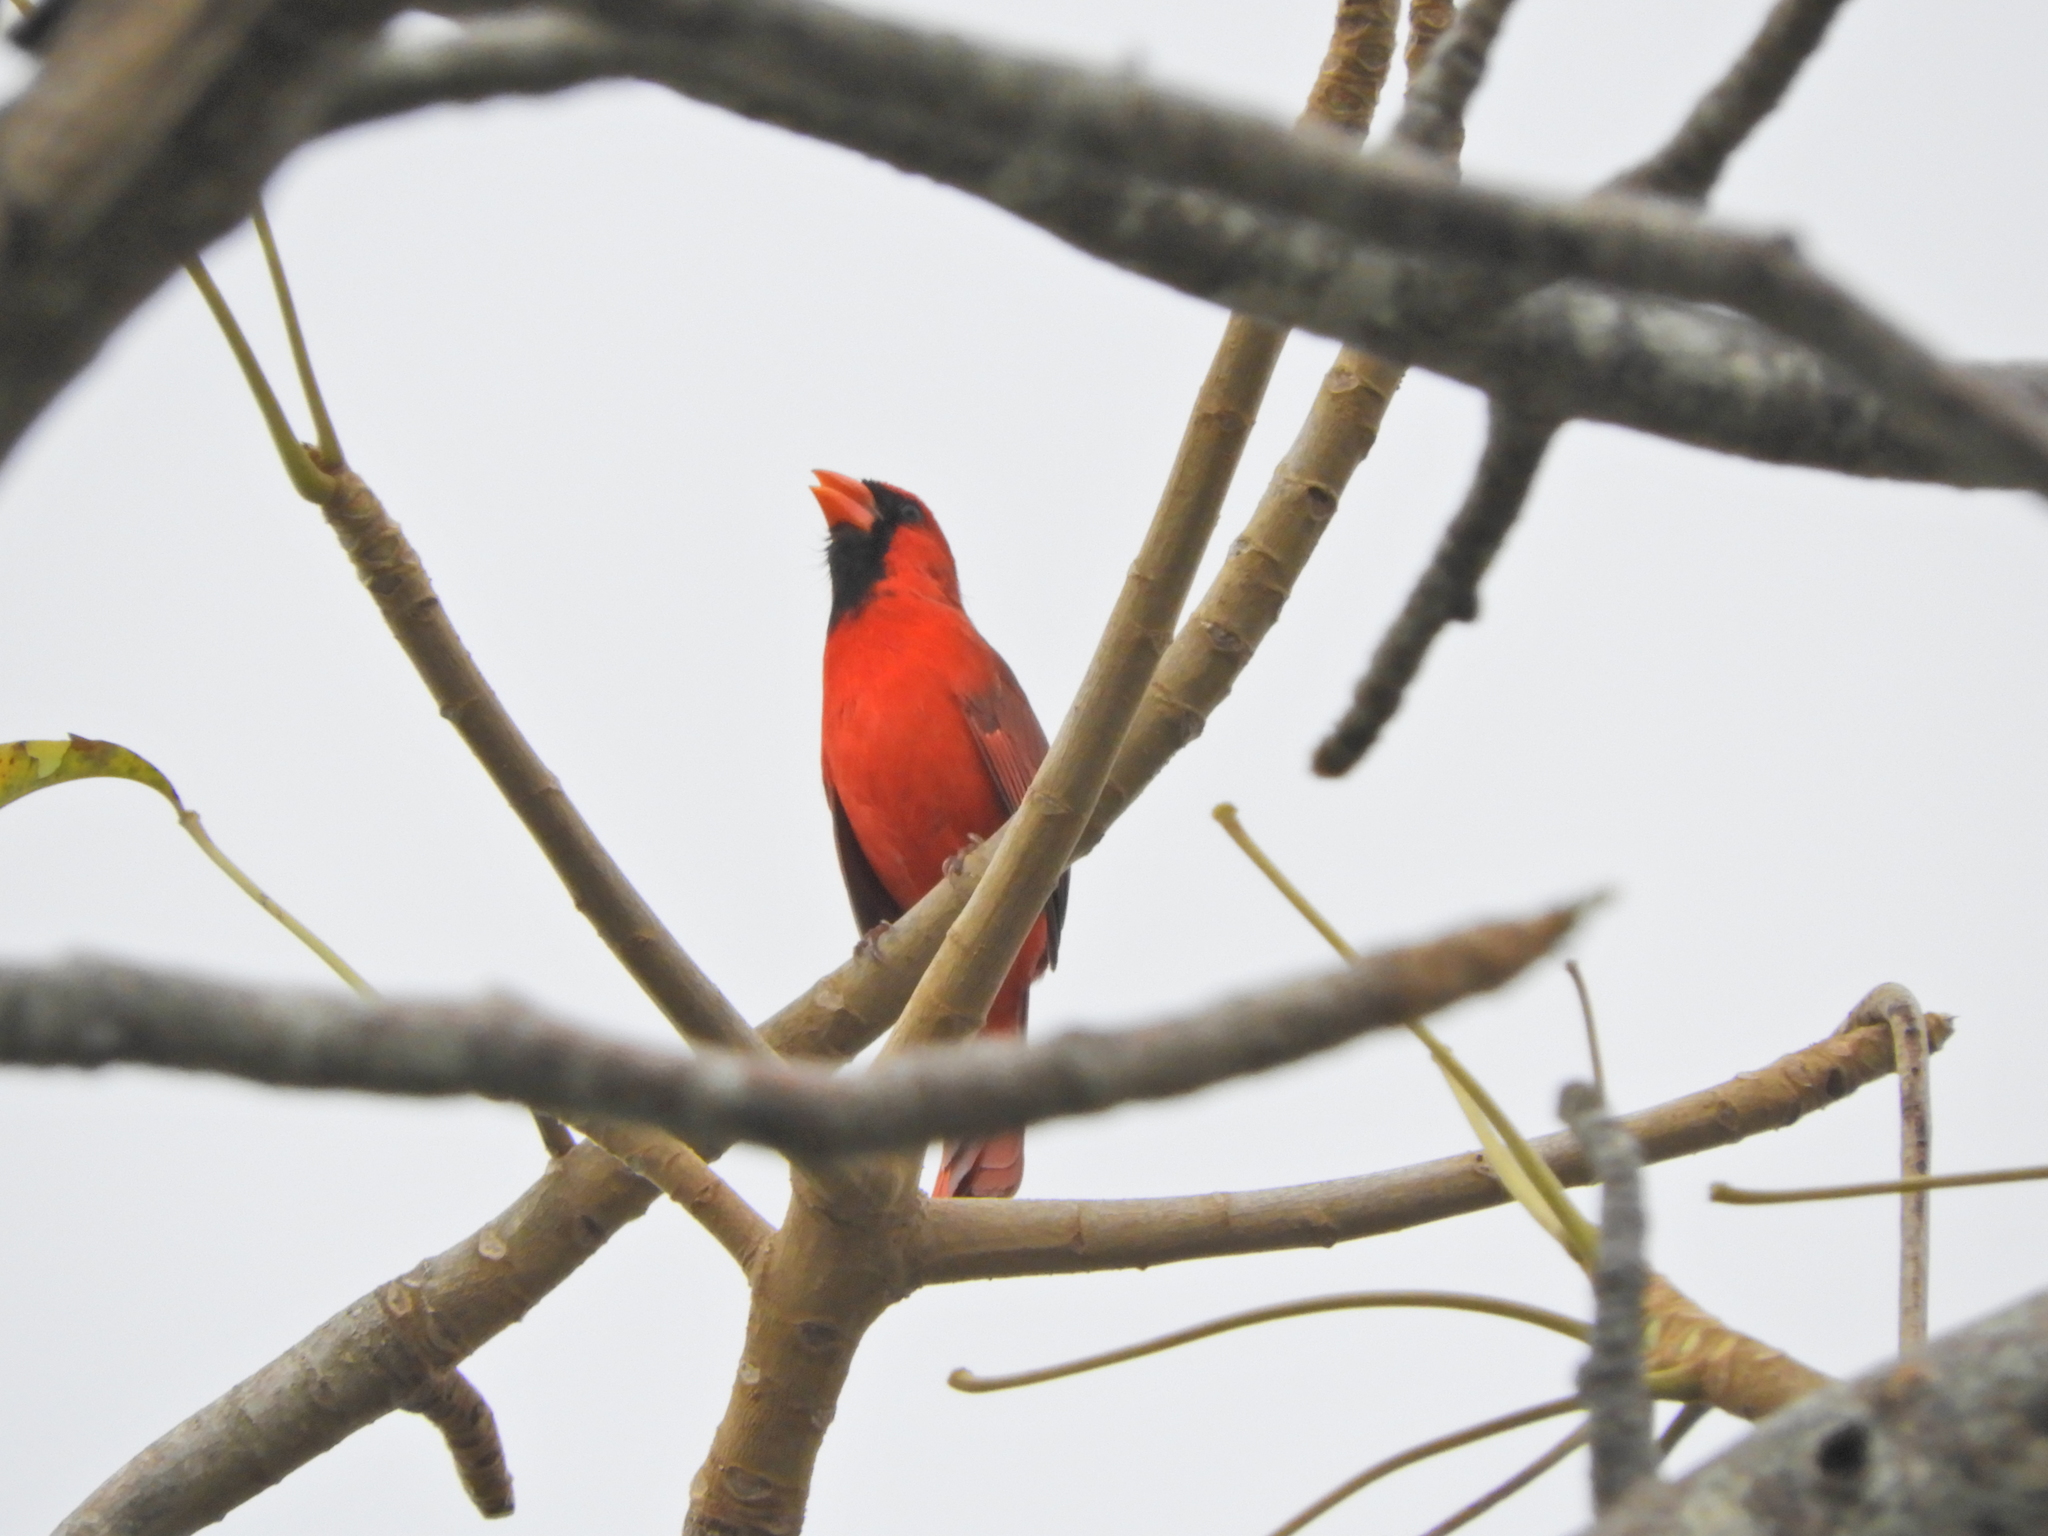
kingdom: Animalia
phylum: Chordata
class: Aves
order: Passeriformes
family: Cardinalidae
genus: Cardinalis
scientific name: Cardinalis cardinalis
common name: Northern cardinal
